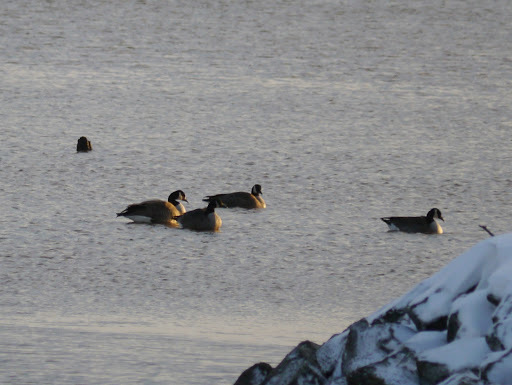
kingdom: Animalia
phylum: Chordata
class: Aves
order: Anseriformes
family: Anatidae
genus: Branta
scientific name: Branta canadensis
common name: Canada goose
